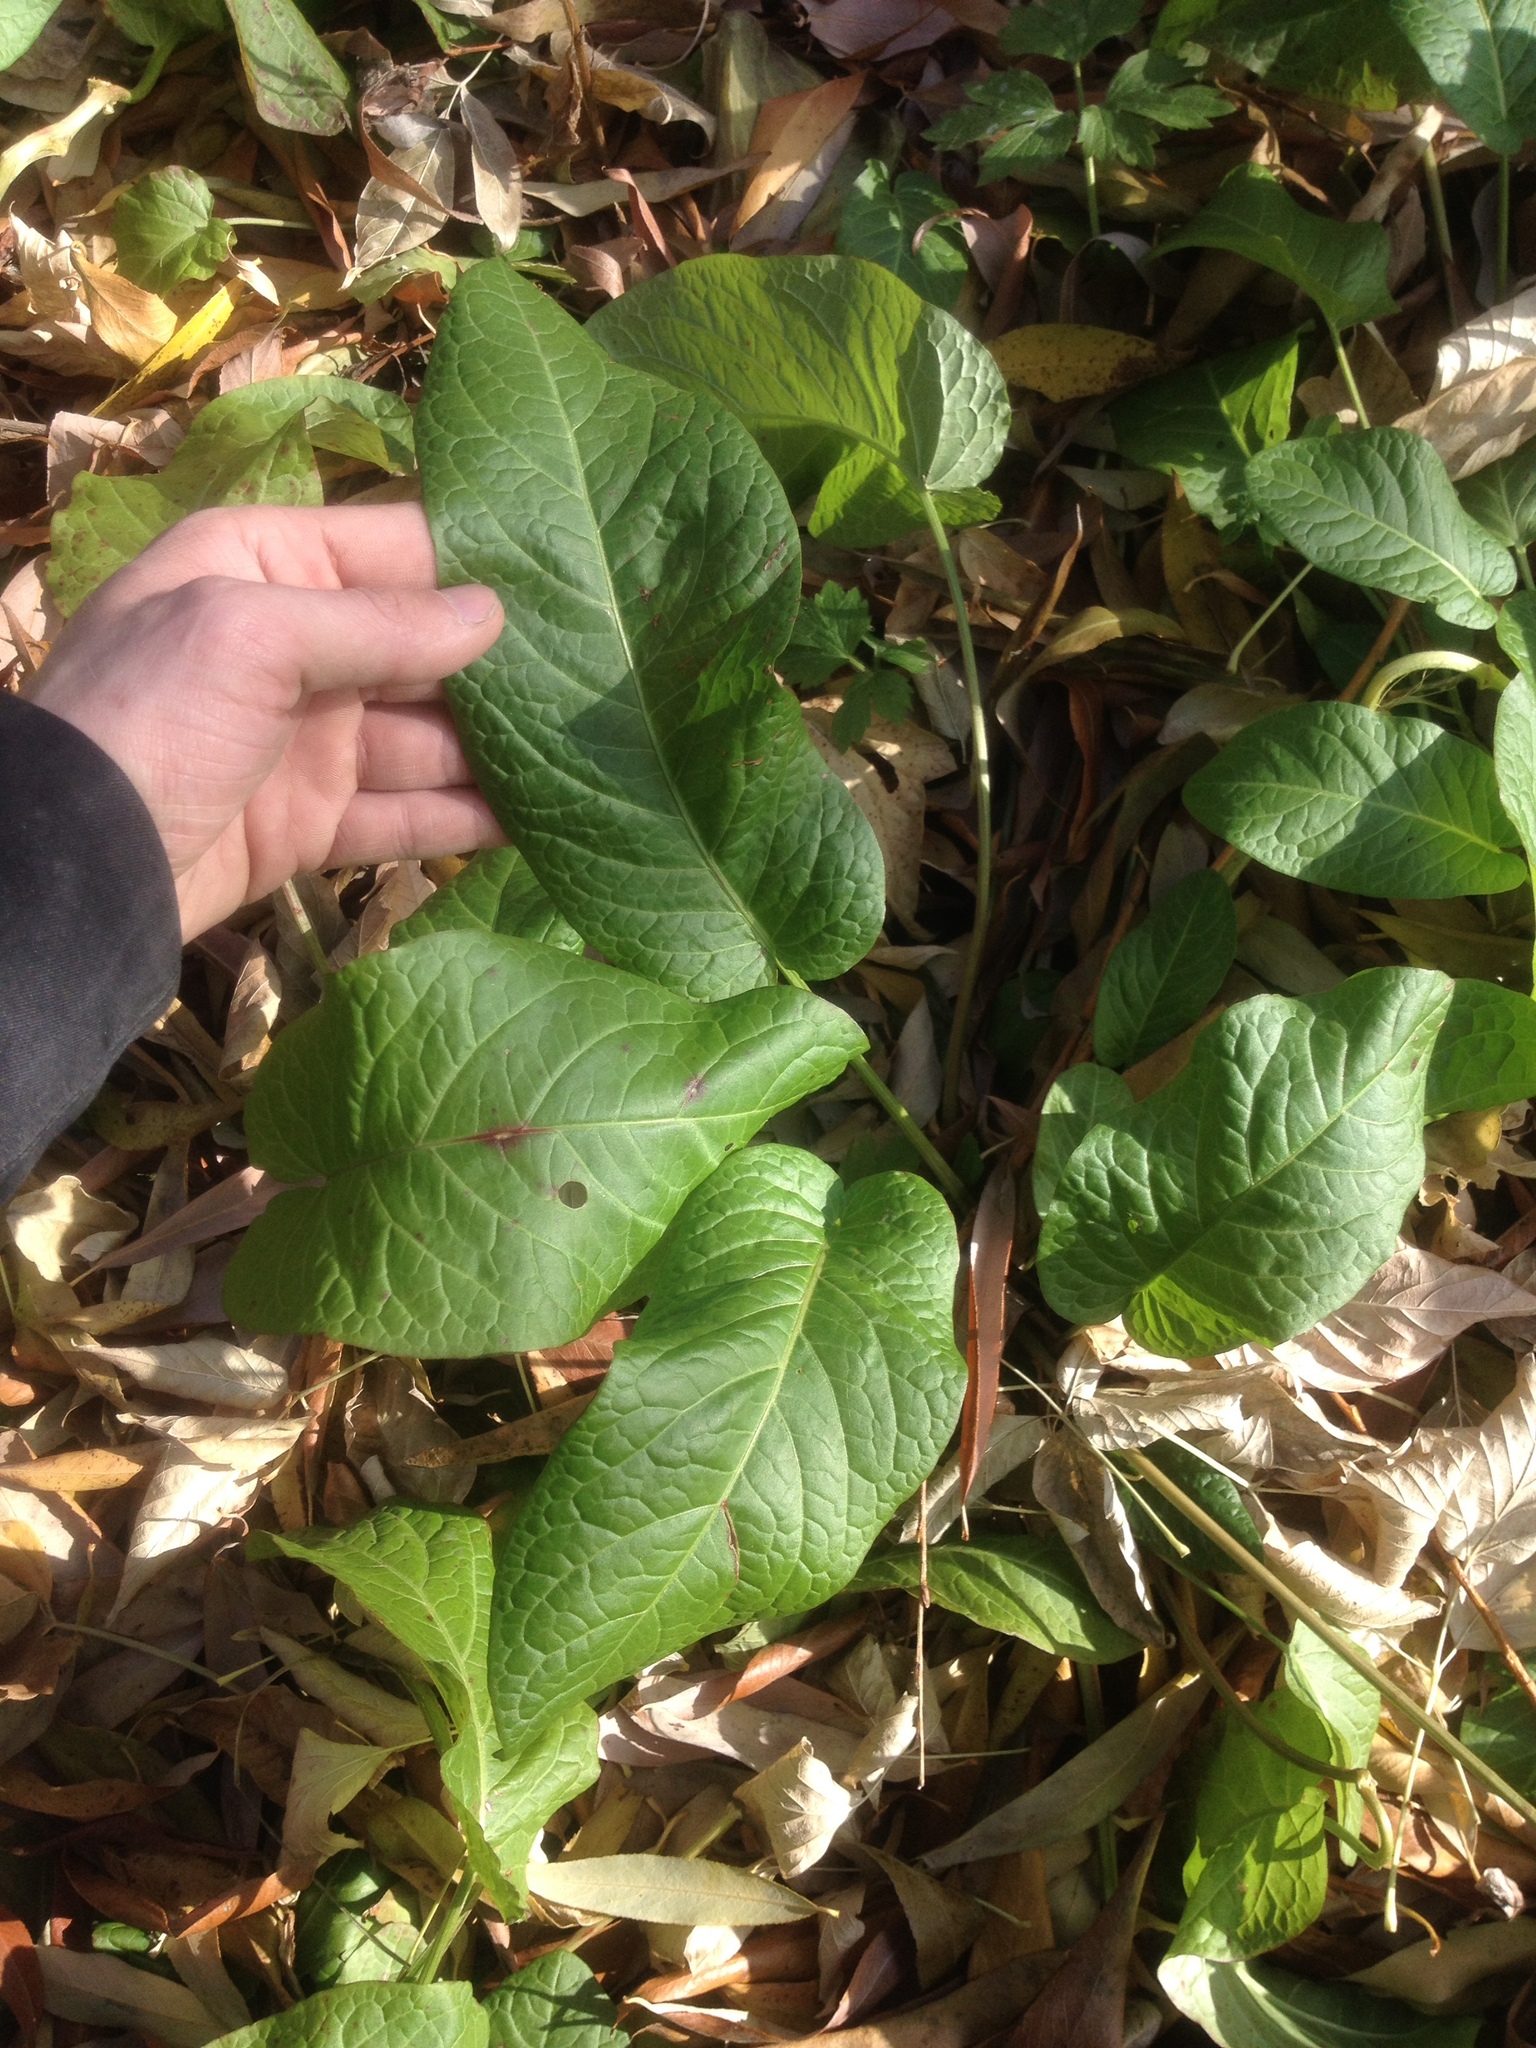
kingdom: Plantae
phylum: Tracheophyta
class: Magnoliopsida
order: Caryophyllales
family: Polygonaceae
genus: Rumex
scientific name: Rumex obtusifolius
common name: Bitter dock
